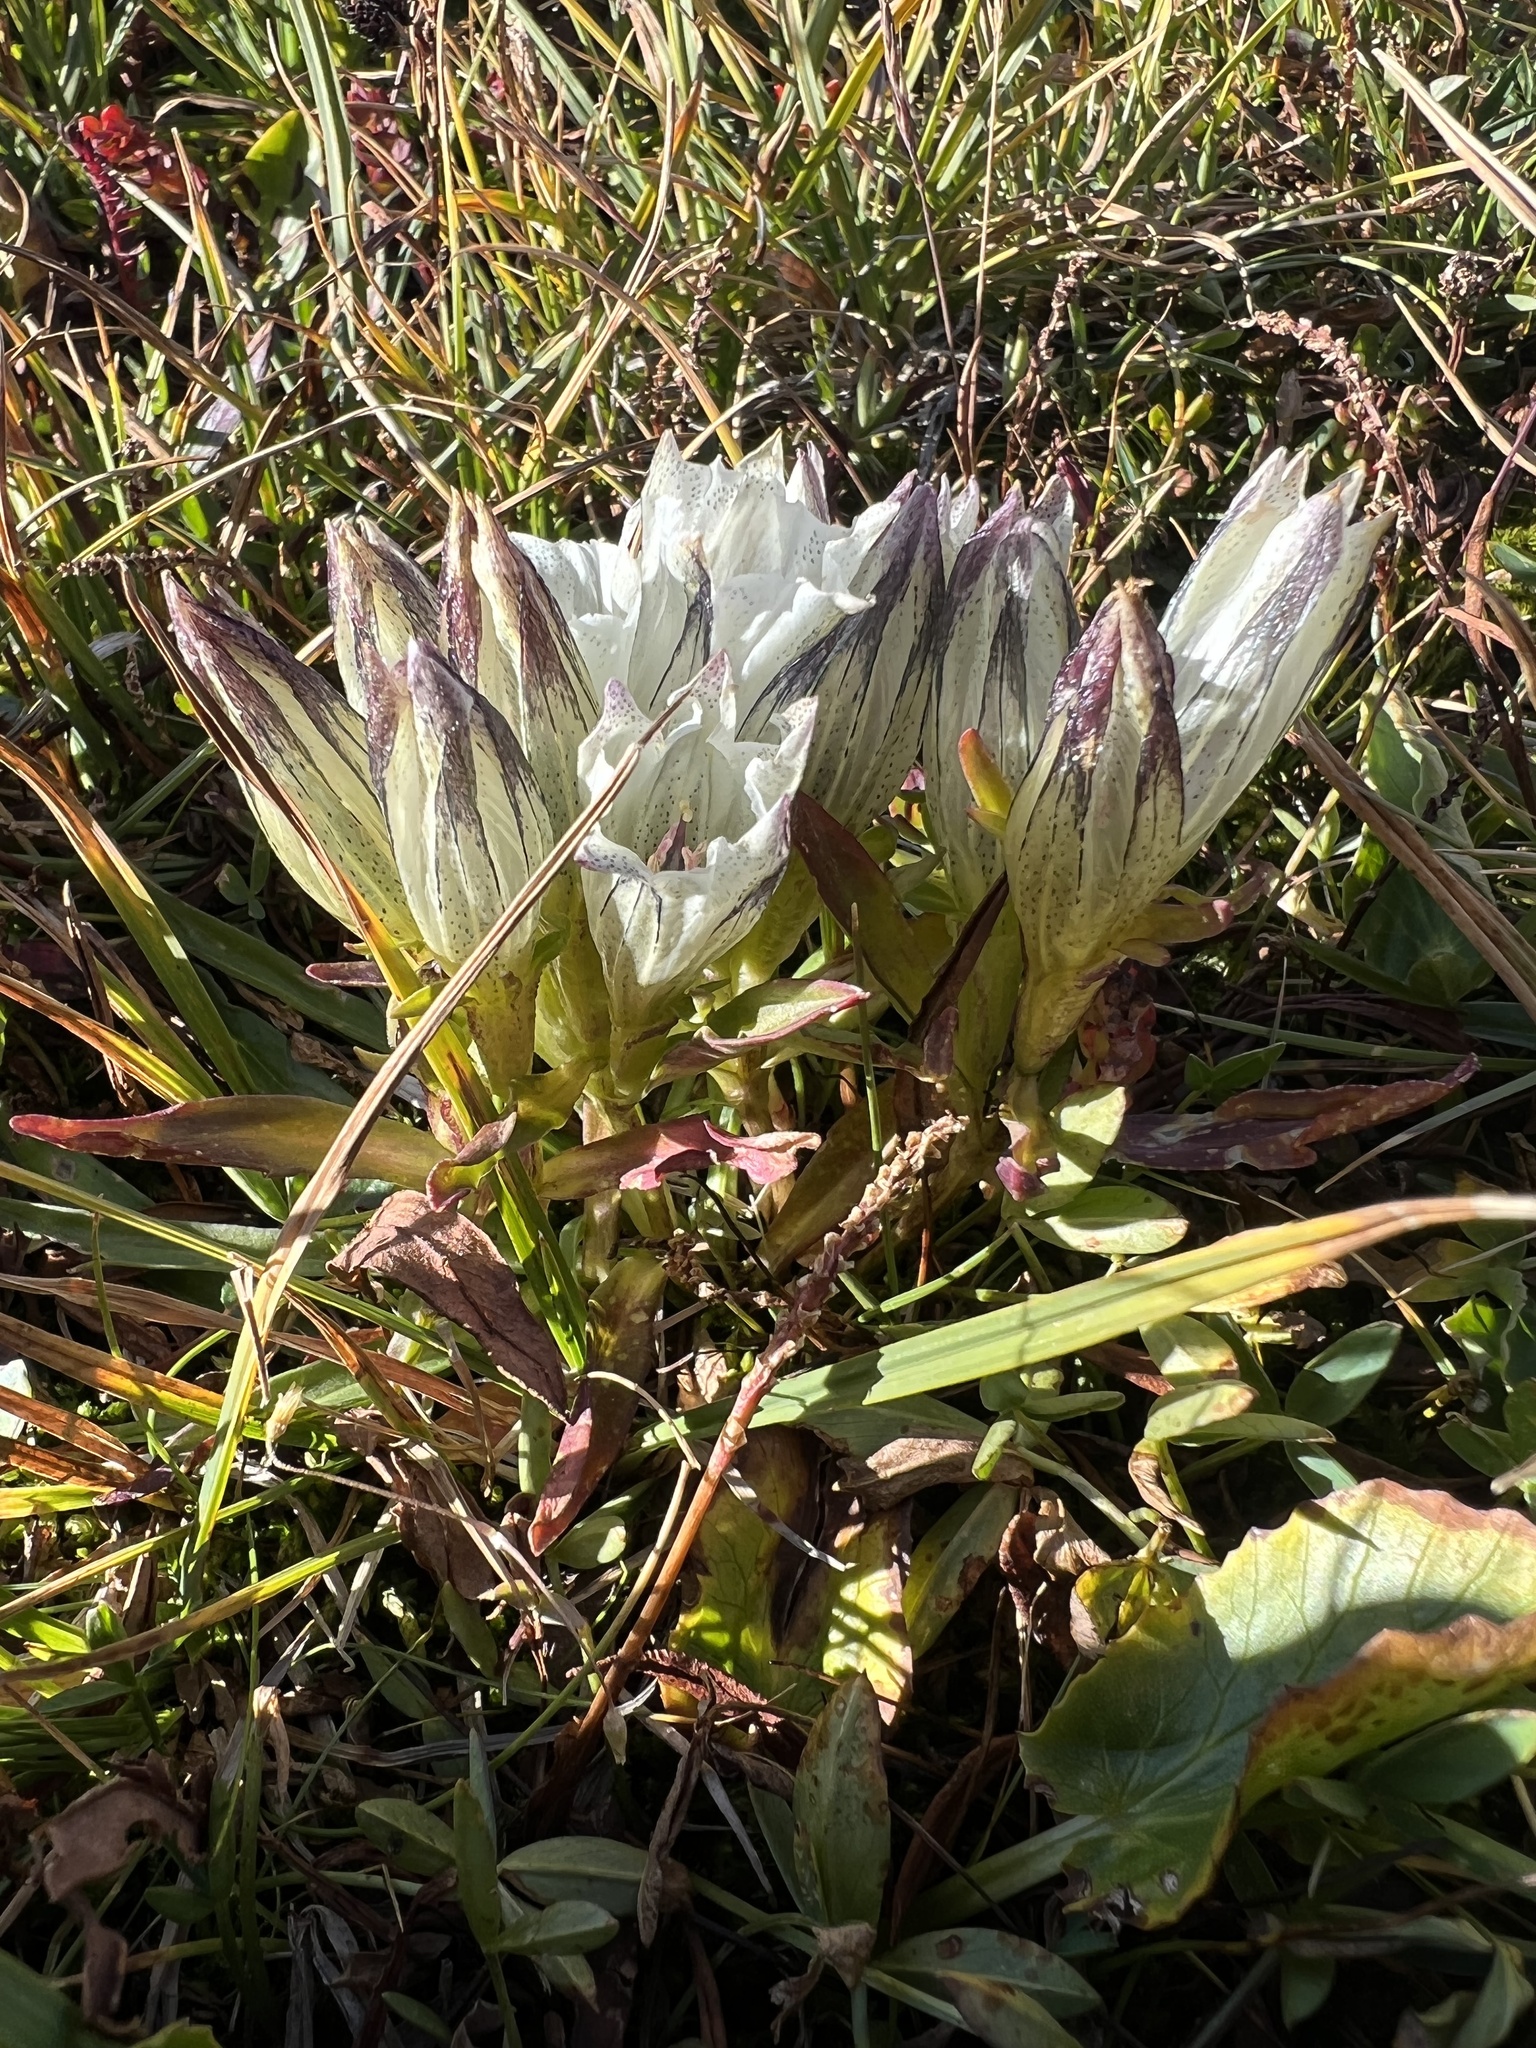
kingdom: Plantae
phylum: Tracheophyta
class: Magnoliopsida
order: Gentianales
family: Gentianaceae
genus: Gentiana
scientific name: Gentiana algida
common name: Arctic gentian
